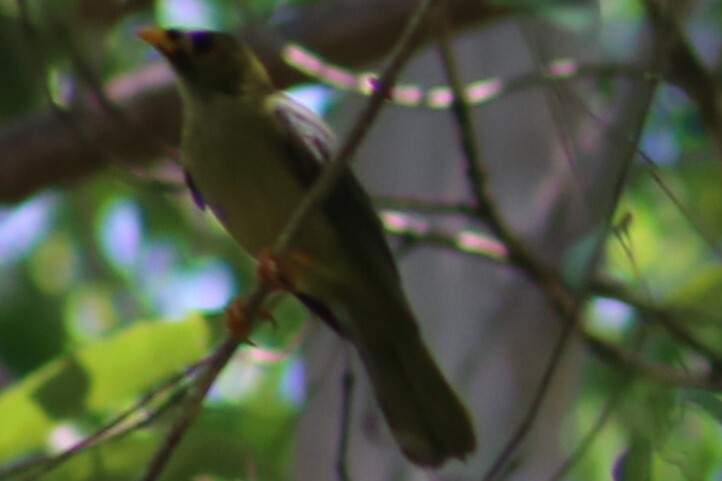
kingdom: Animalia
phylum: Chordata
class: Aves
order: Passeriformes
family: Meliphagidae
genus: Manorina
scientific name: Manorina melanophrys
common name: Bell miner
